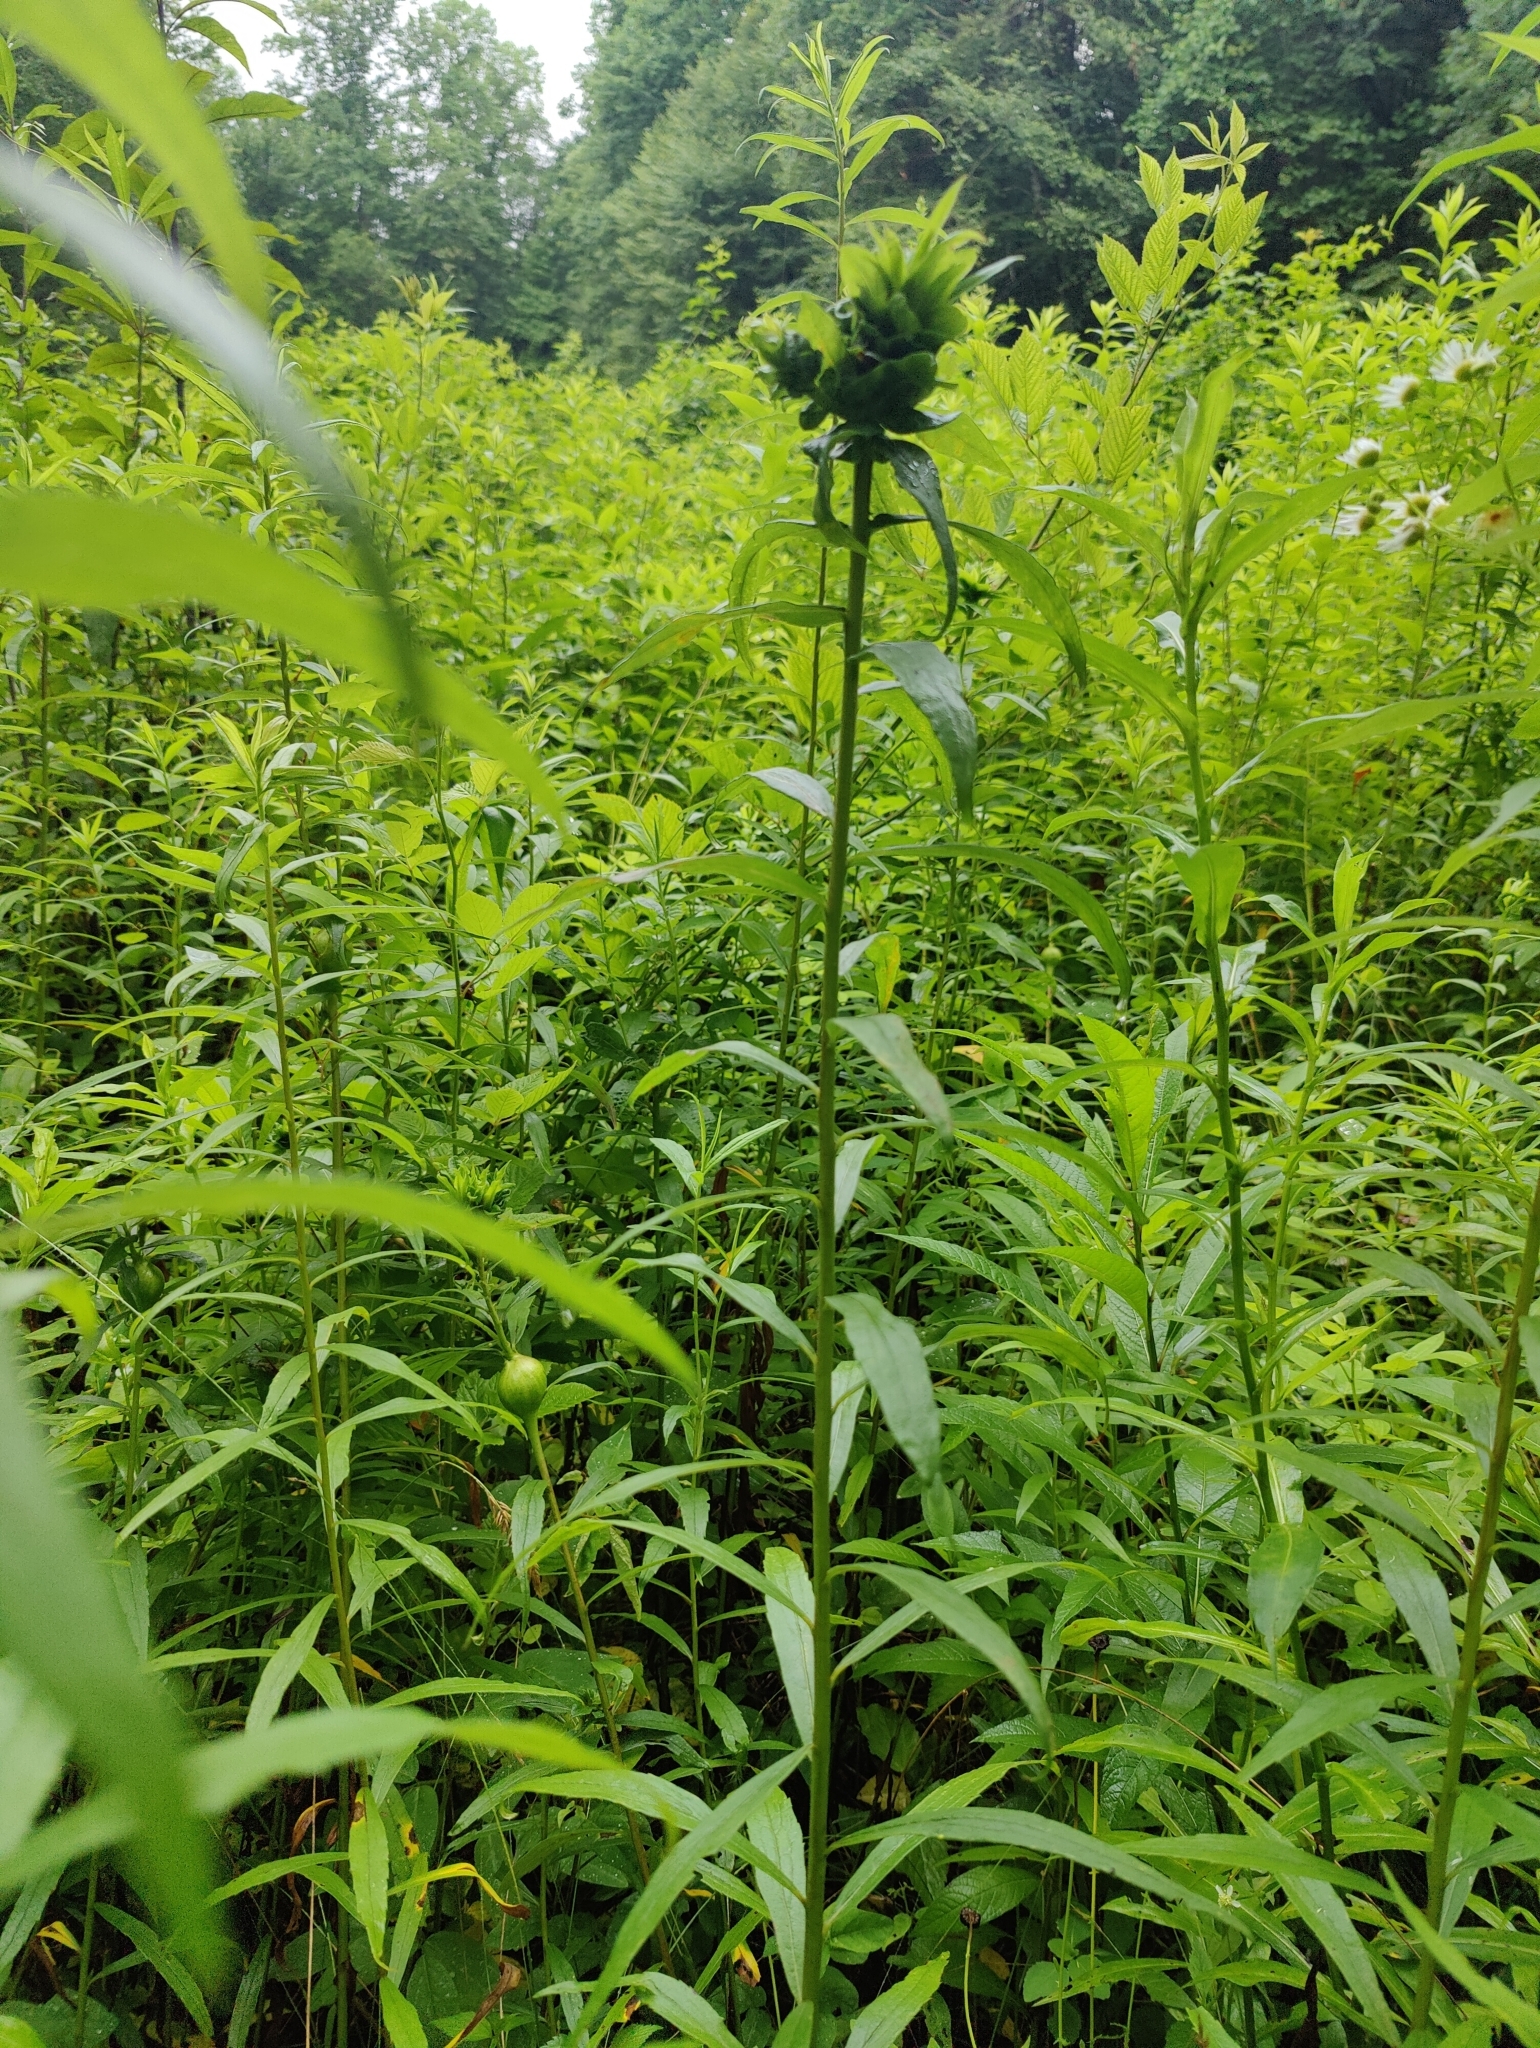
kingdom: Animalia
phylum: Arthropoda
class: Insecta
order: Diptera
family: Cecidomyiidae
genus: Rhopalomyia
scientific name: Rhopalomyia solidaginis
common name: Goldenrod bunch gall midge
